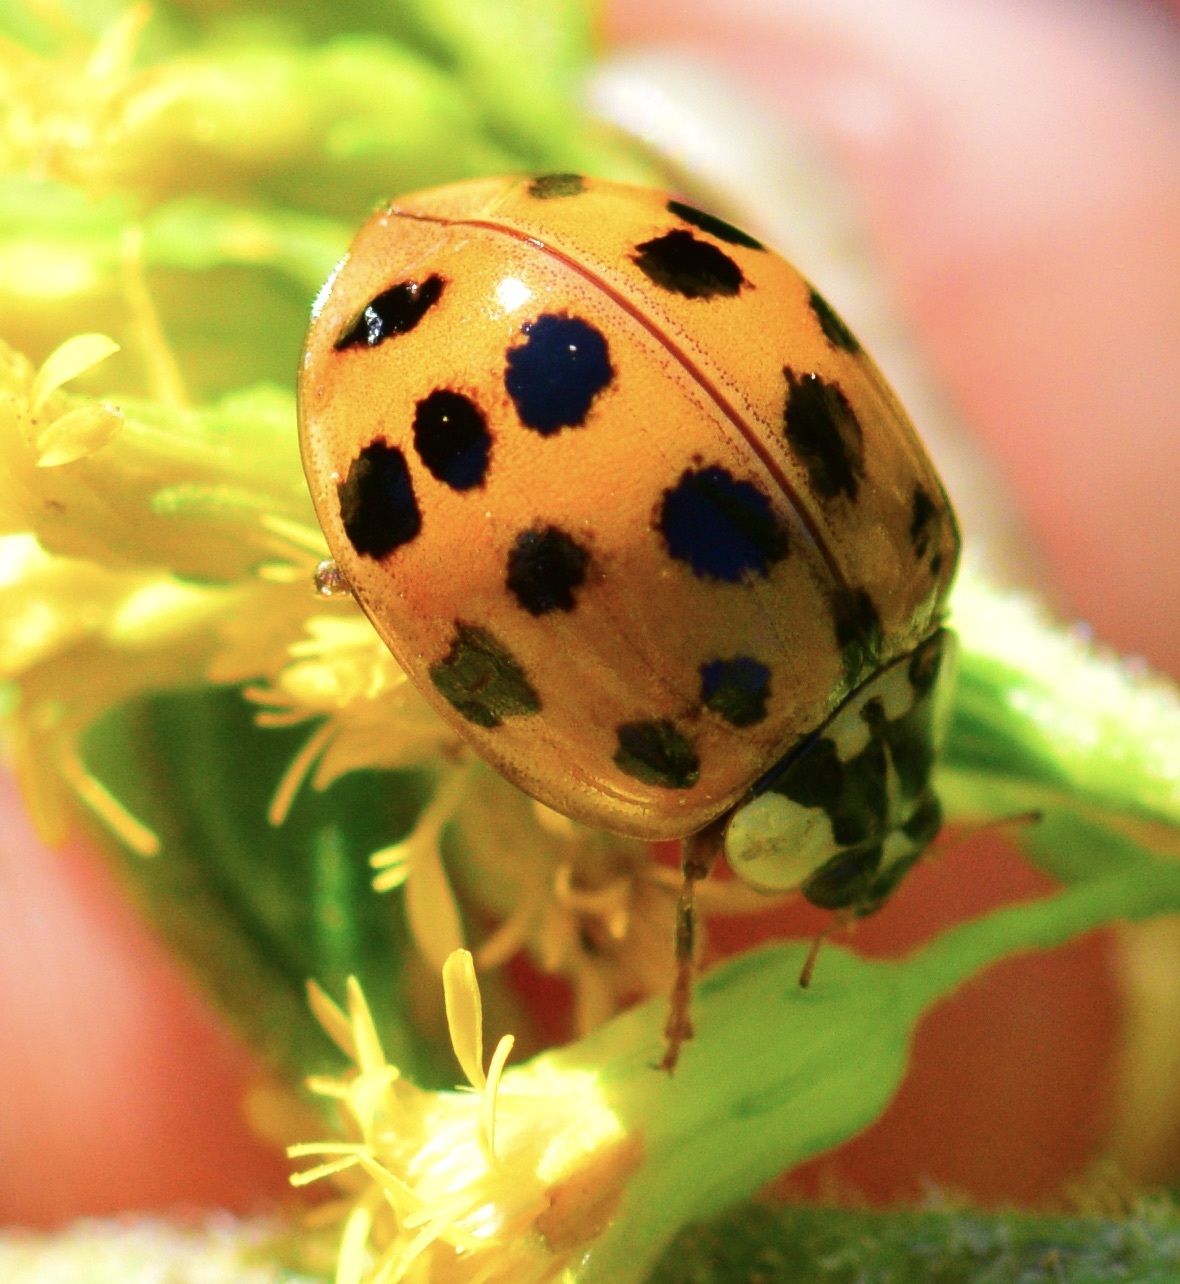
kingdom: Animalia
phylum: Arthropoda
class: Insecta
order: Coleoptera
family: Coccinellidae
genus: Harmonia
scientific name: Harmonia axyridis
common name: Harlequin ladybird
